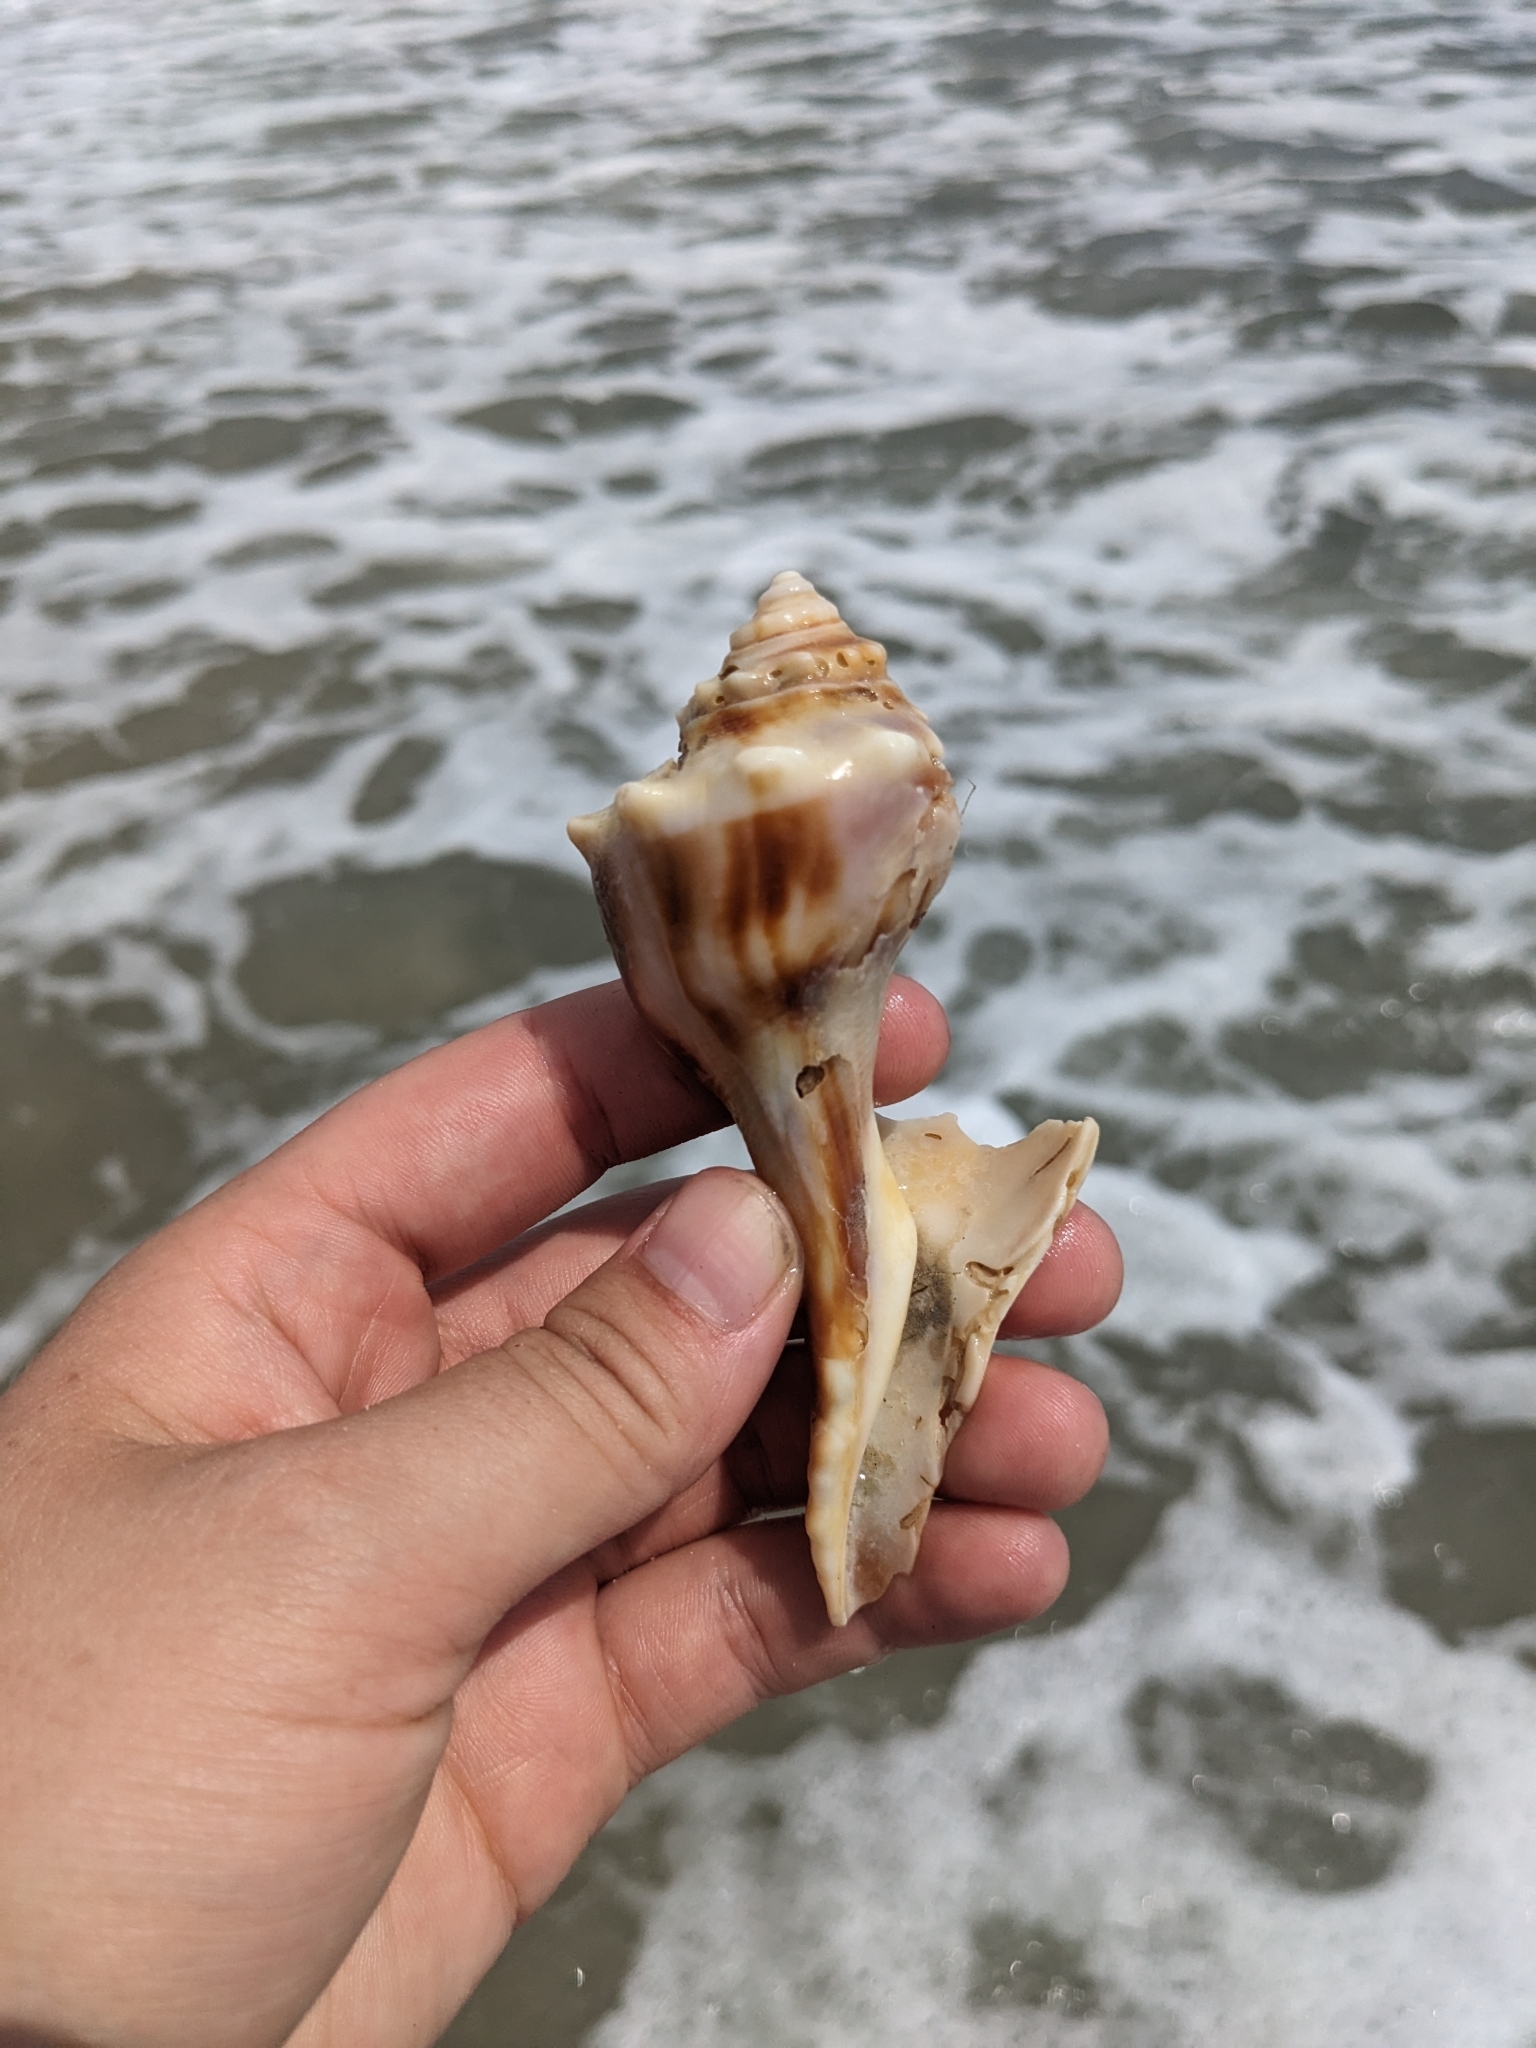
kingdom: Animalia
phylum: Mollusca
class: Gastropoda
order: Neogastropoda
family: Busyconidae
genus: Busycon
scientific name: Busycon carica
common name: Knobbed whelk
